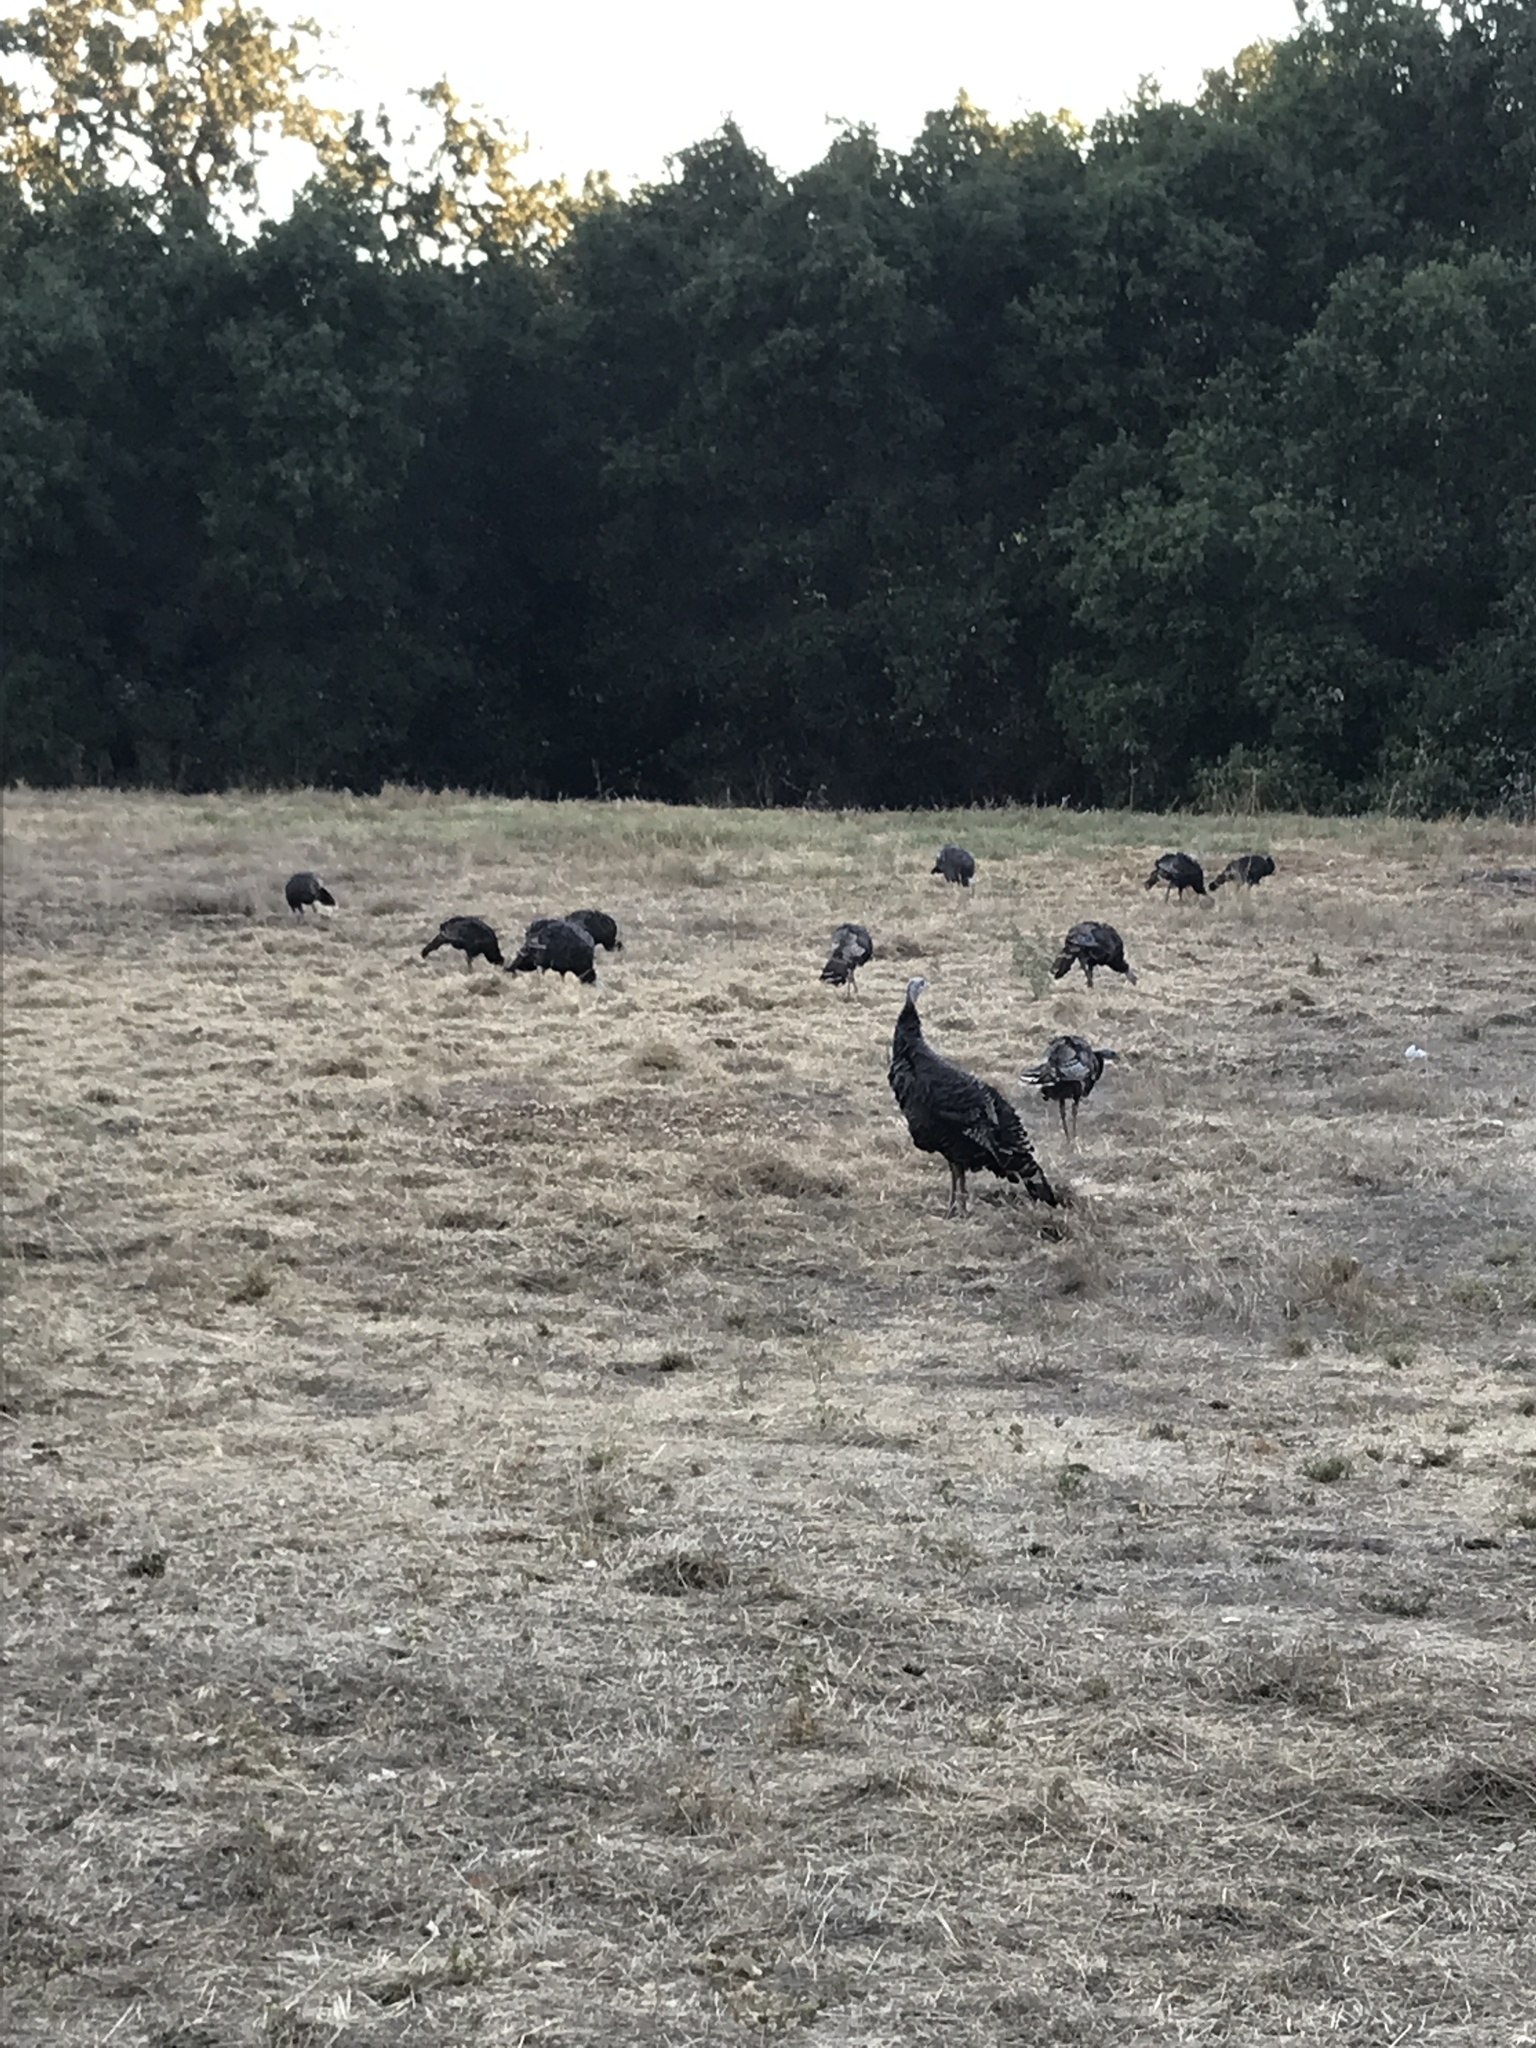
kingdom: Animalia
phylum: Chordata
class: Aves
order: Galliformes
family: Phasianidae
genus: Meleagris
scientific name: Meleagris gallopavo
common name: Wild turkey
